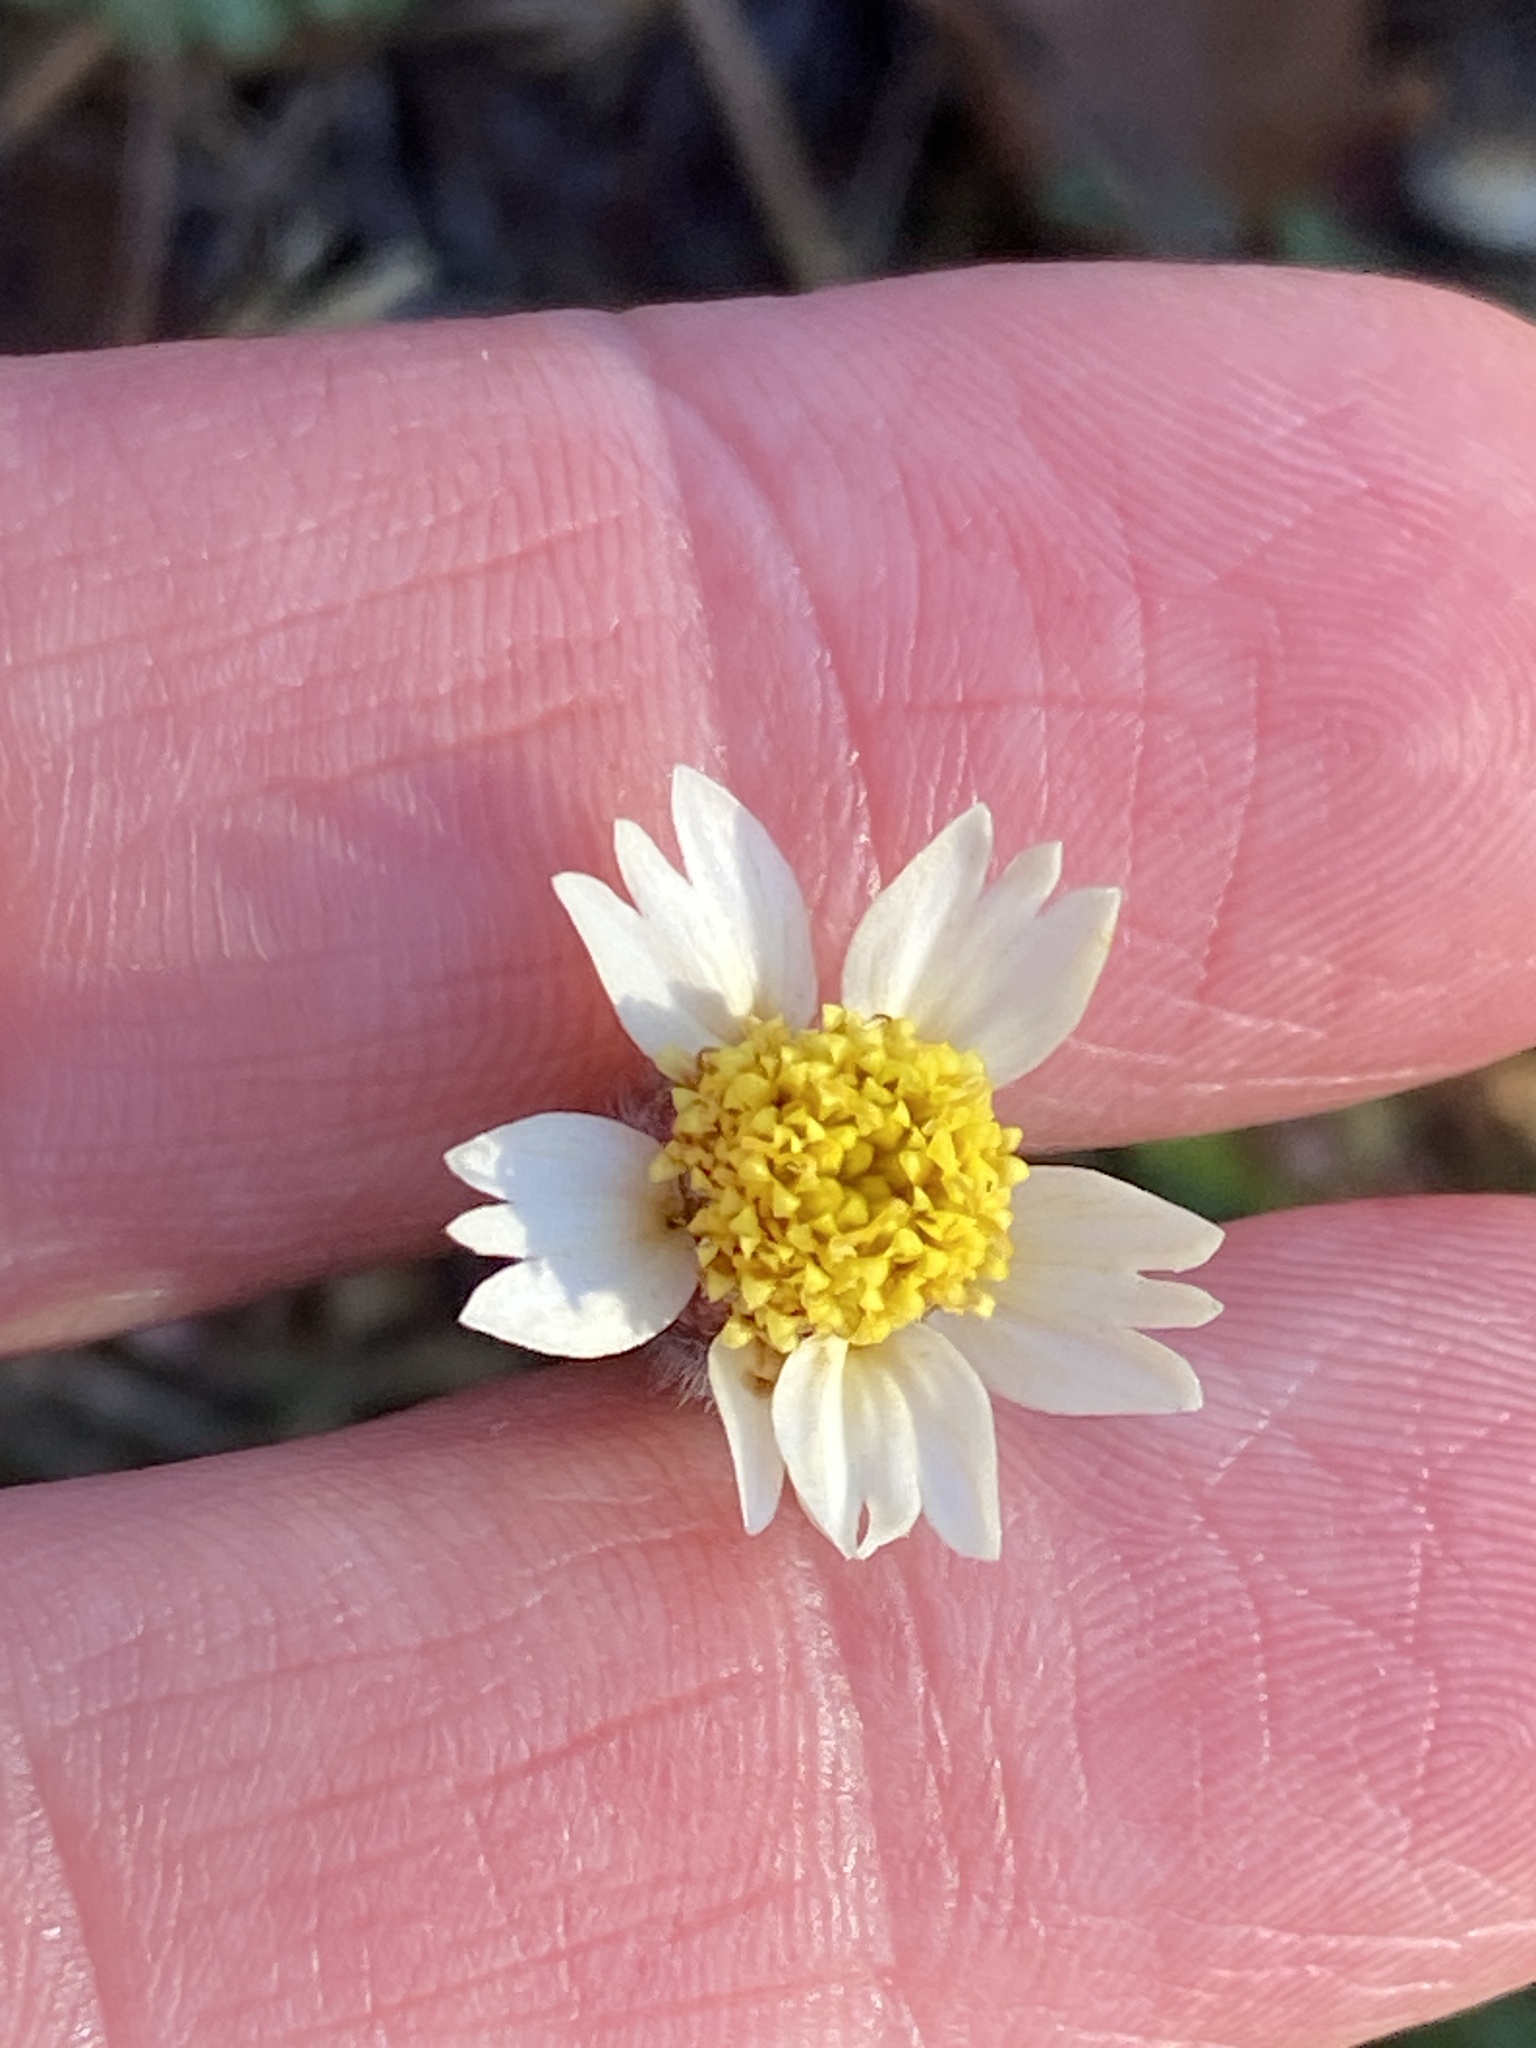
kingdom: Plantae
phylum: Tracheophyta
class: Magnoliopsida
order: Asterales
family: Asteraceae
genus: Tridax
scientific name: Tridax procumbens
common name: Coatbuttons
